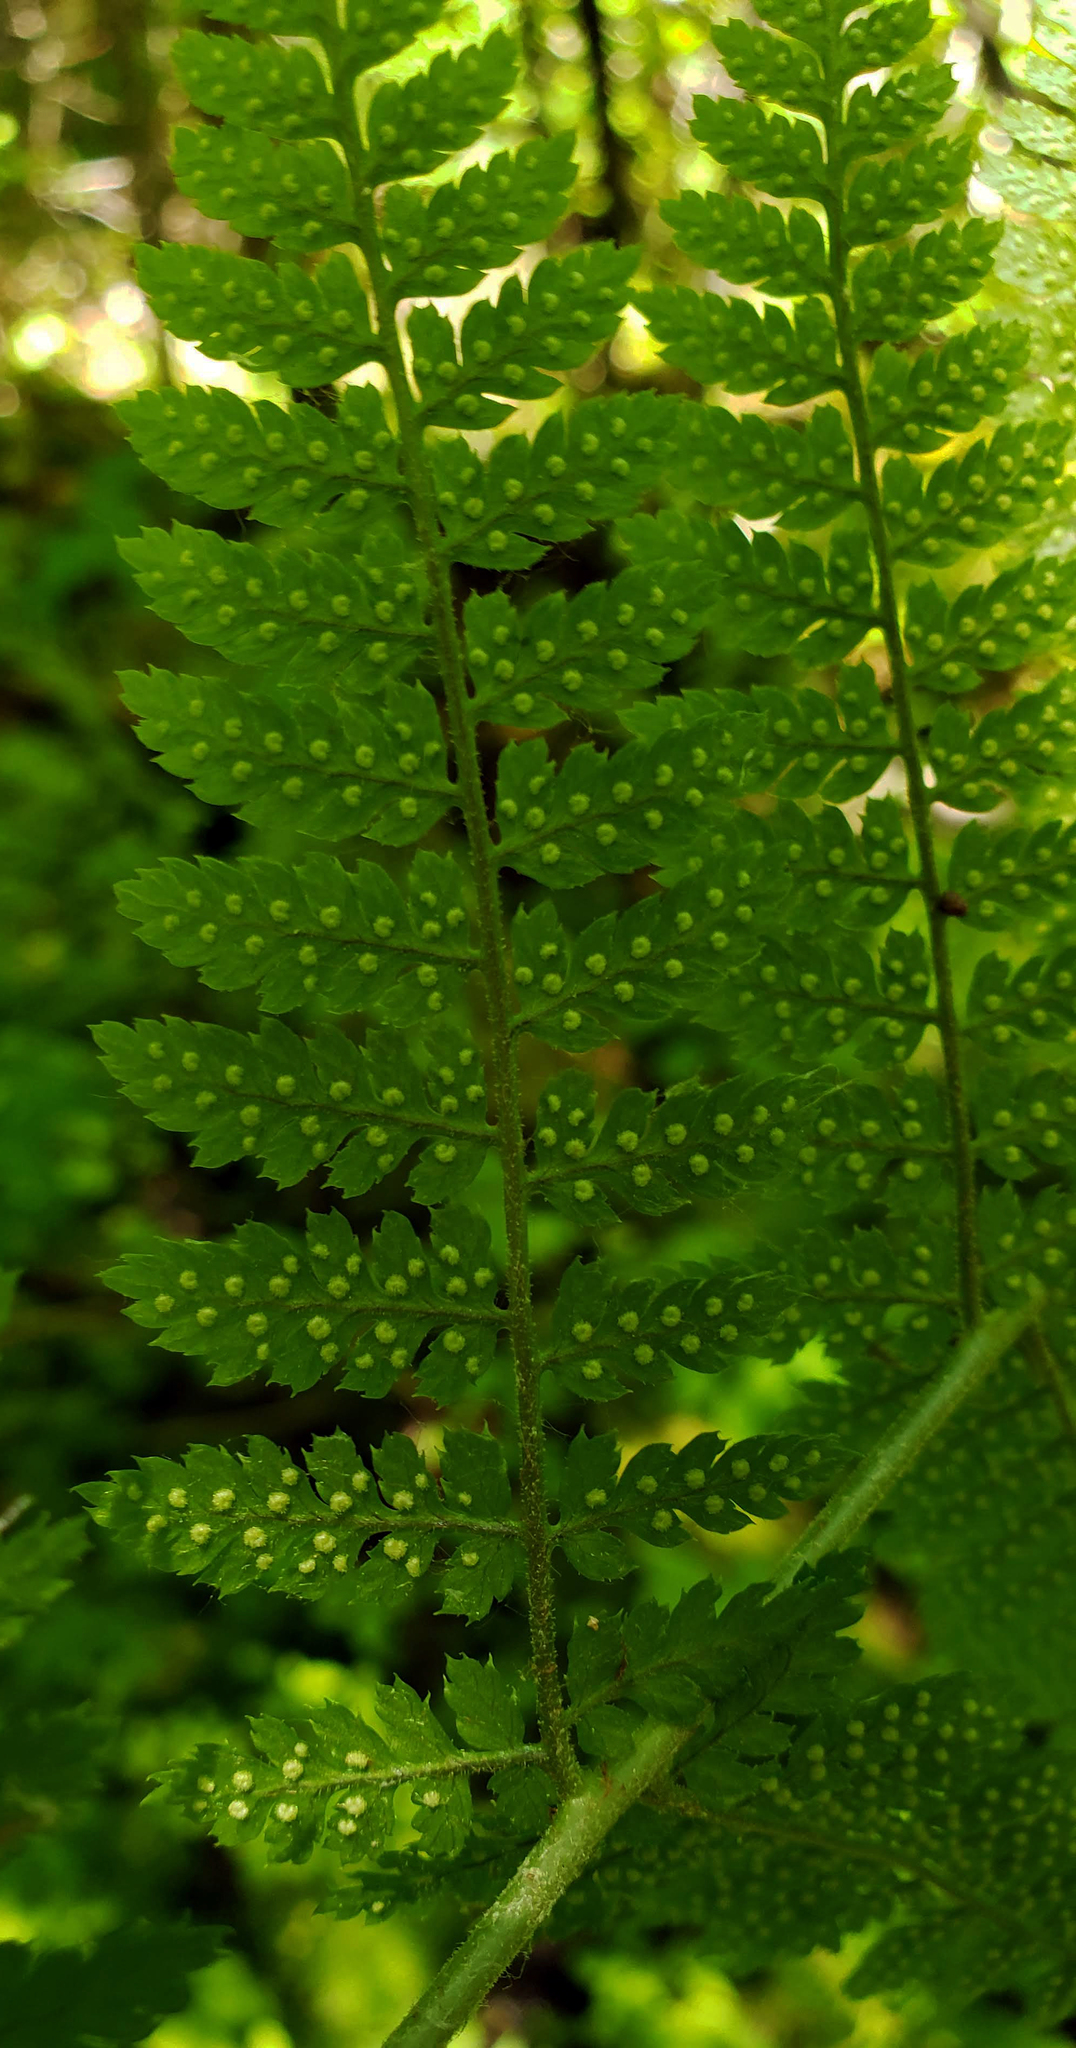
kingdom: Plantae
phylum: Tracheophyta
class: Polypodiopsida
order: Polypodiales
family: Dryopteridaceae
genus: Dryopteris
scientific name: Dryopteris intermedia
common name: Evergreen wood fern
